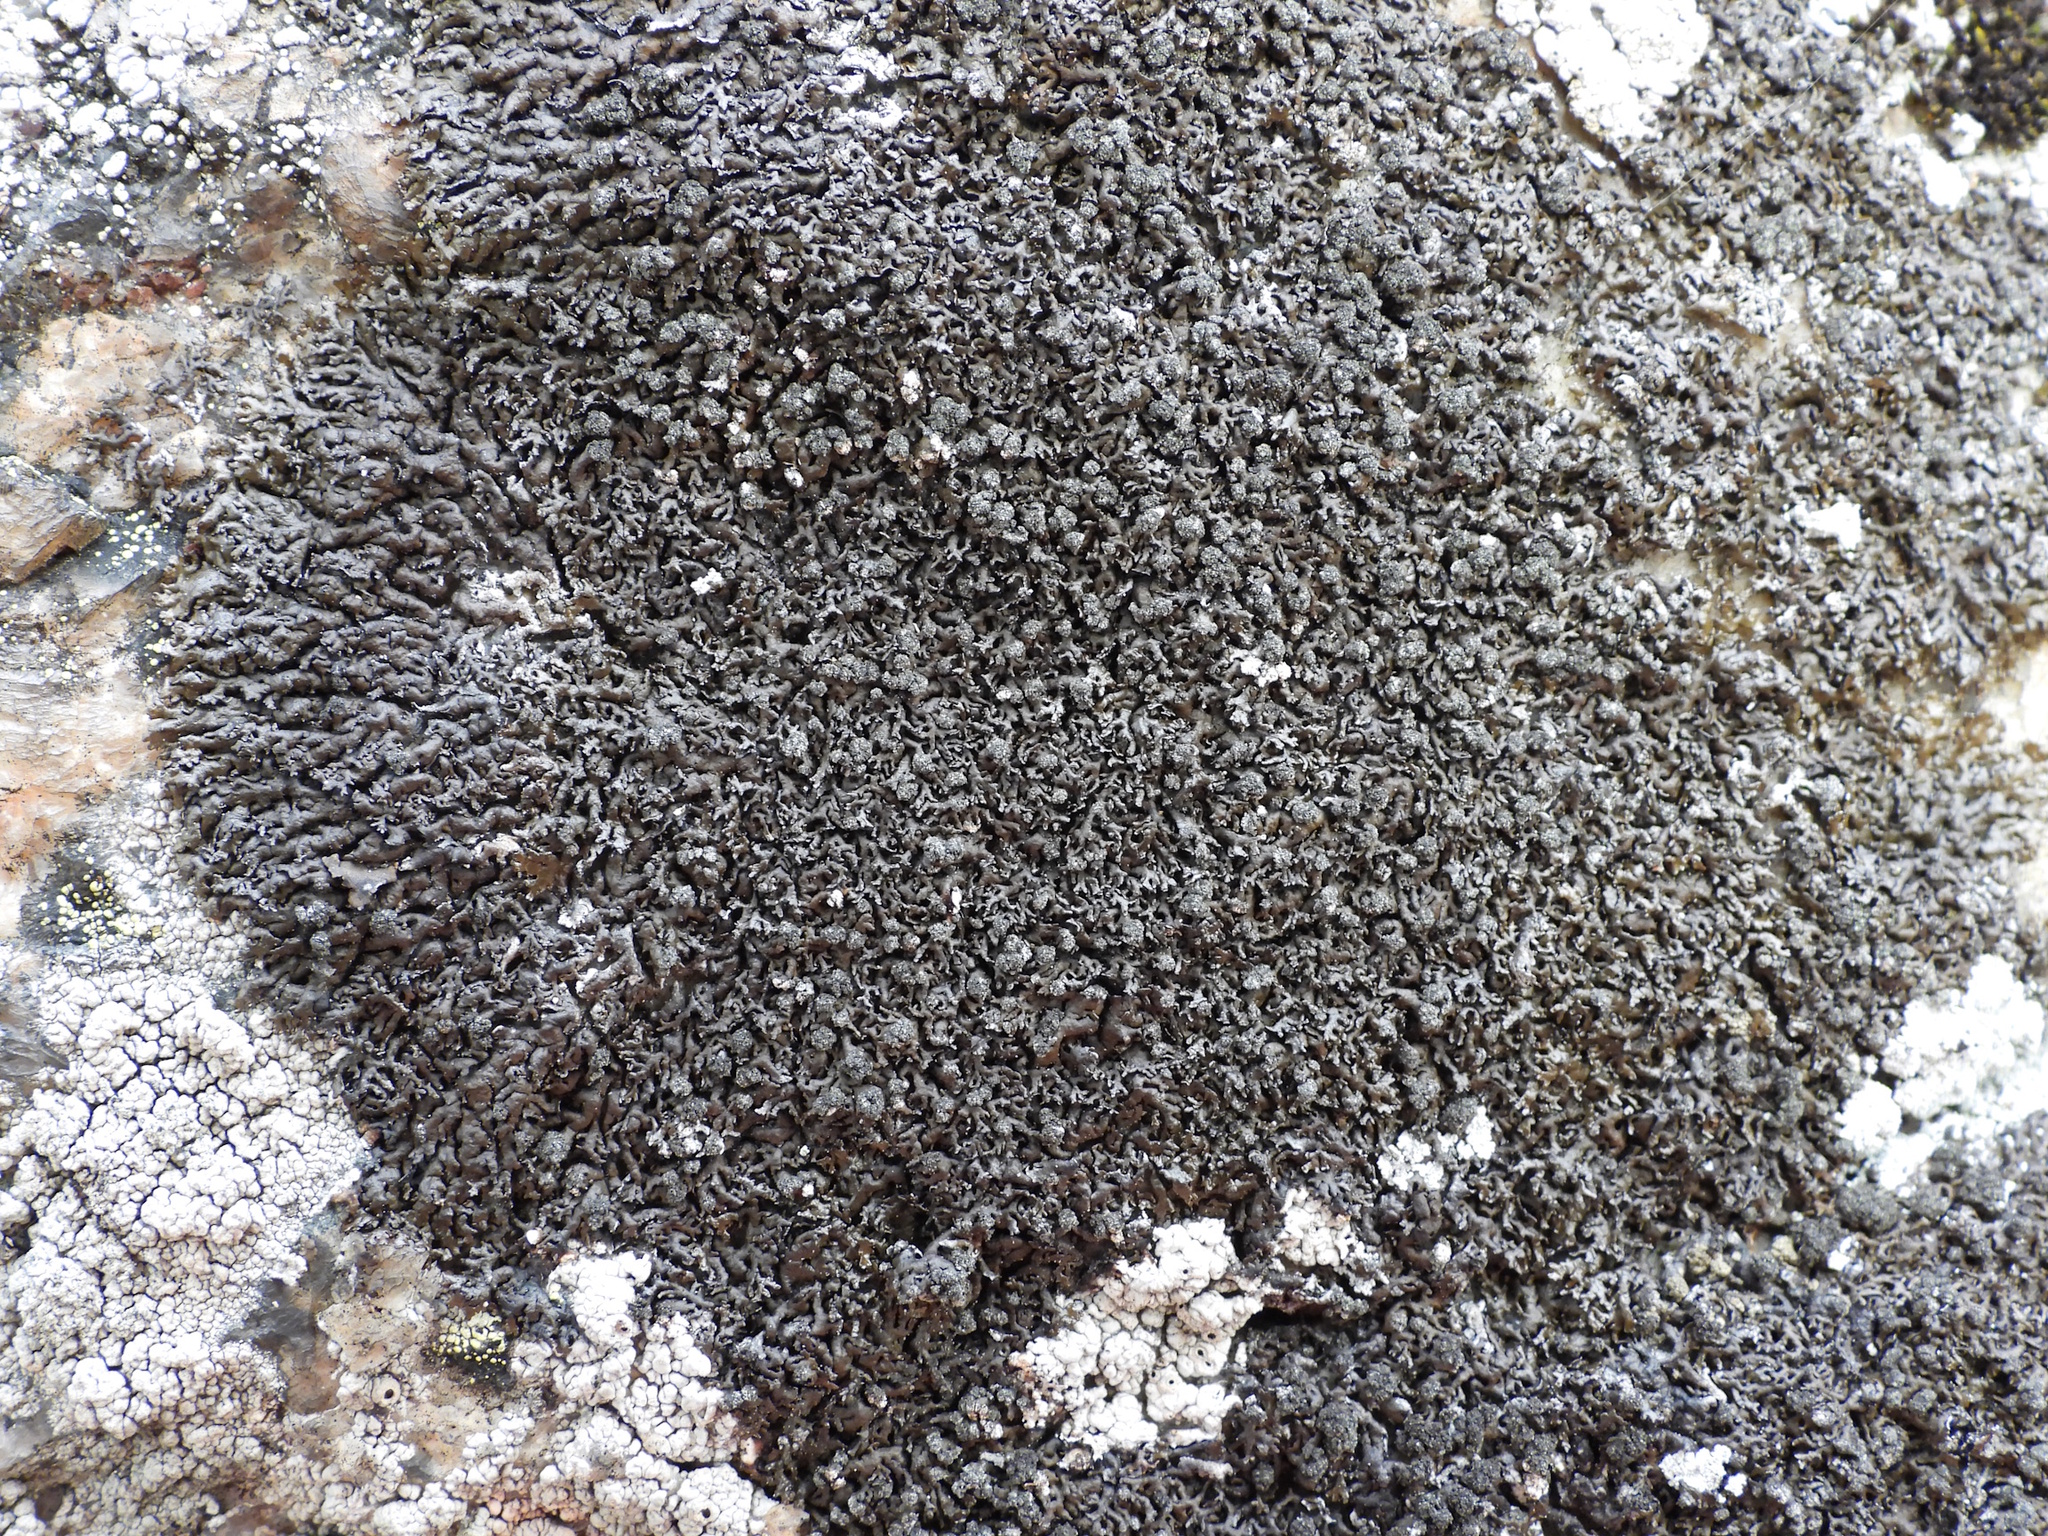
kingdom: Fungi
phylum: Ascomycota
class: Lecanoromycetes
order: Lecanorales
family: Parmeliaceae
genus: Montanelia
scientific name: Montanelia disjuncta
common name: Mealy camouflage lichen
